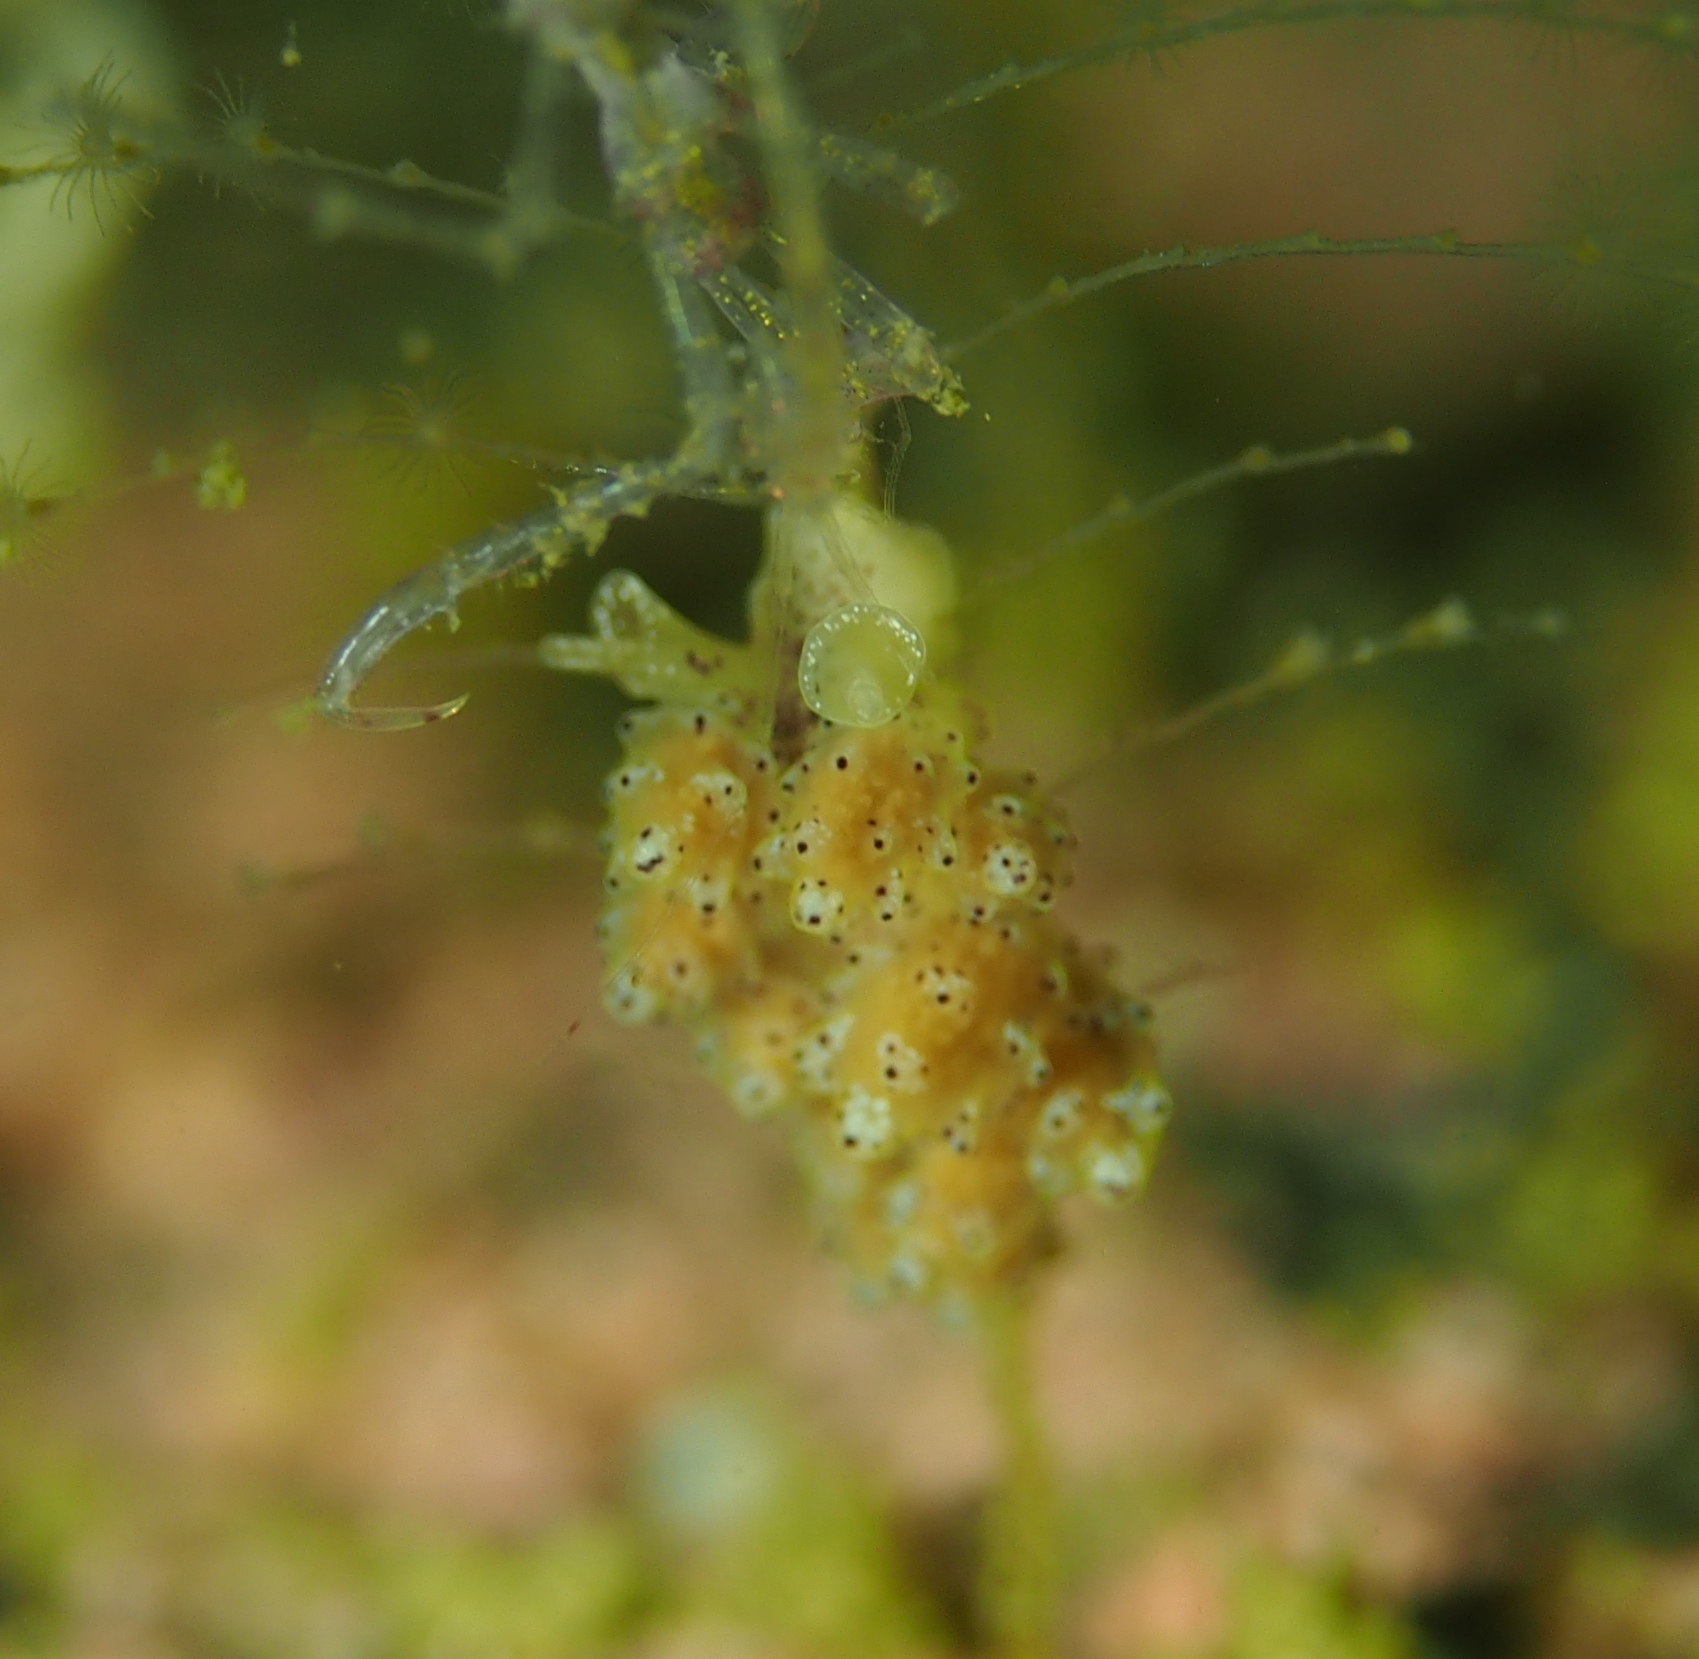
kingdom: Animalia
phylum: Mollusca
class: Gastropoda
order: Nudibranchia
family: Dotidae
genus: Doto
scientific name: Doto dunnei
